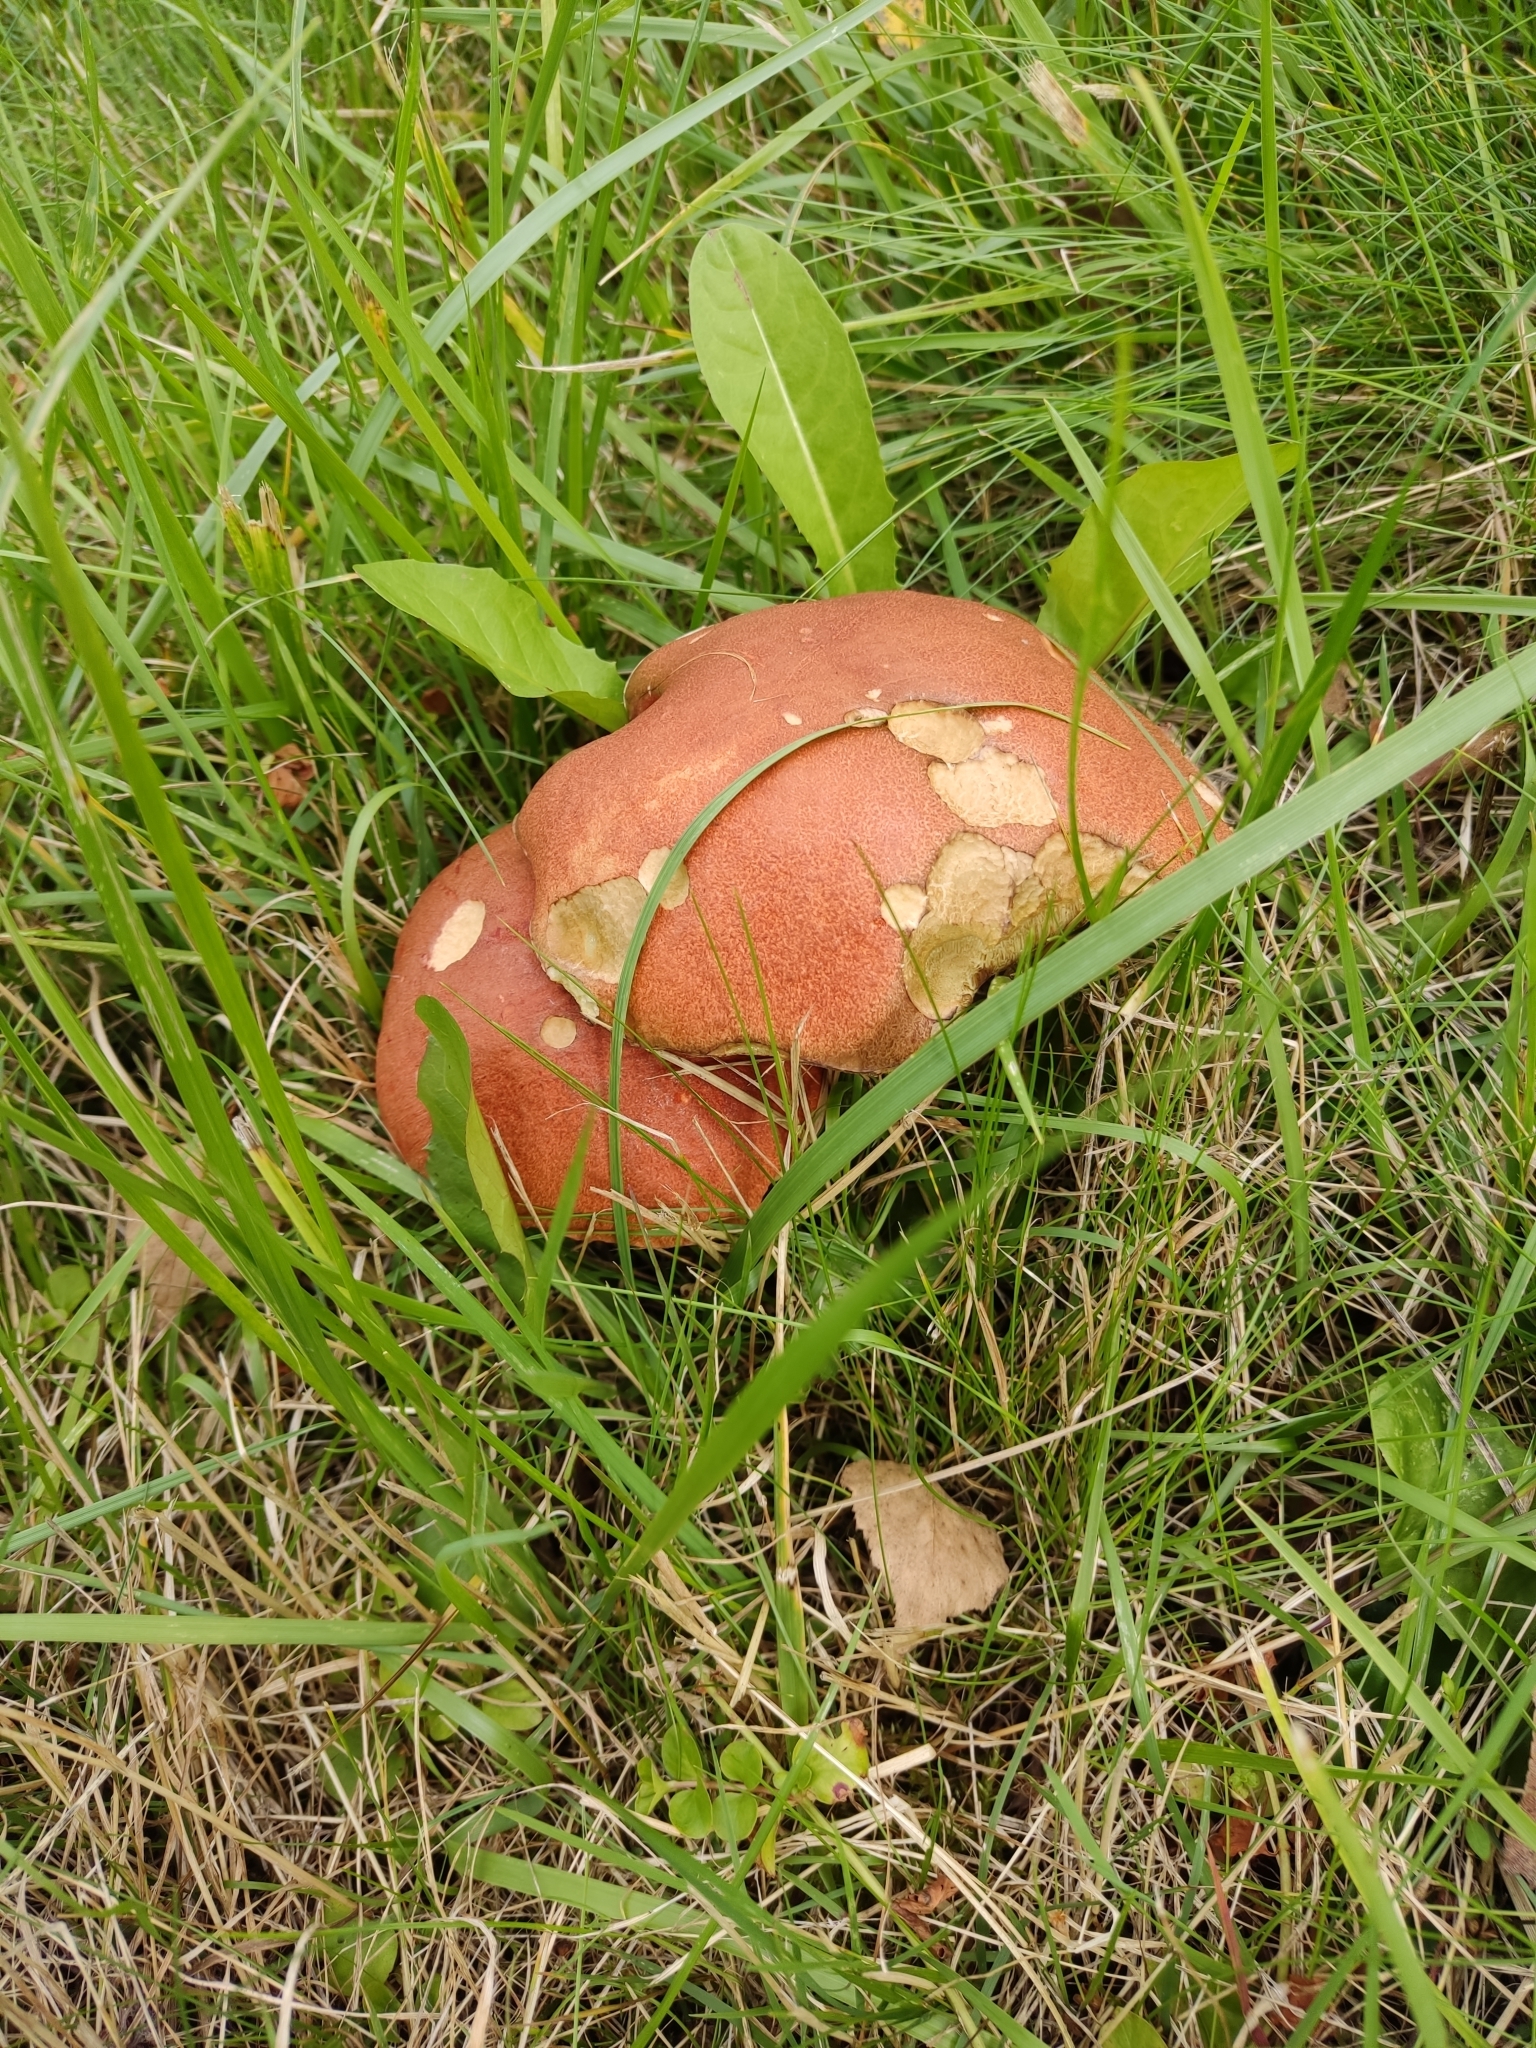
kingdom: Fungi
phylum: Basidiomycota
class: Agaricomycetes
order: Boletales
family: Boletaceae
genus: Leccinum
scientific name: Leccinum aurantiacum
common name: Orange bolete
